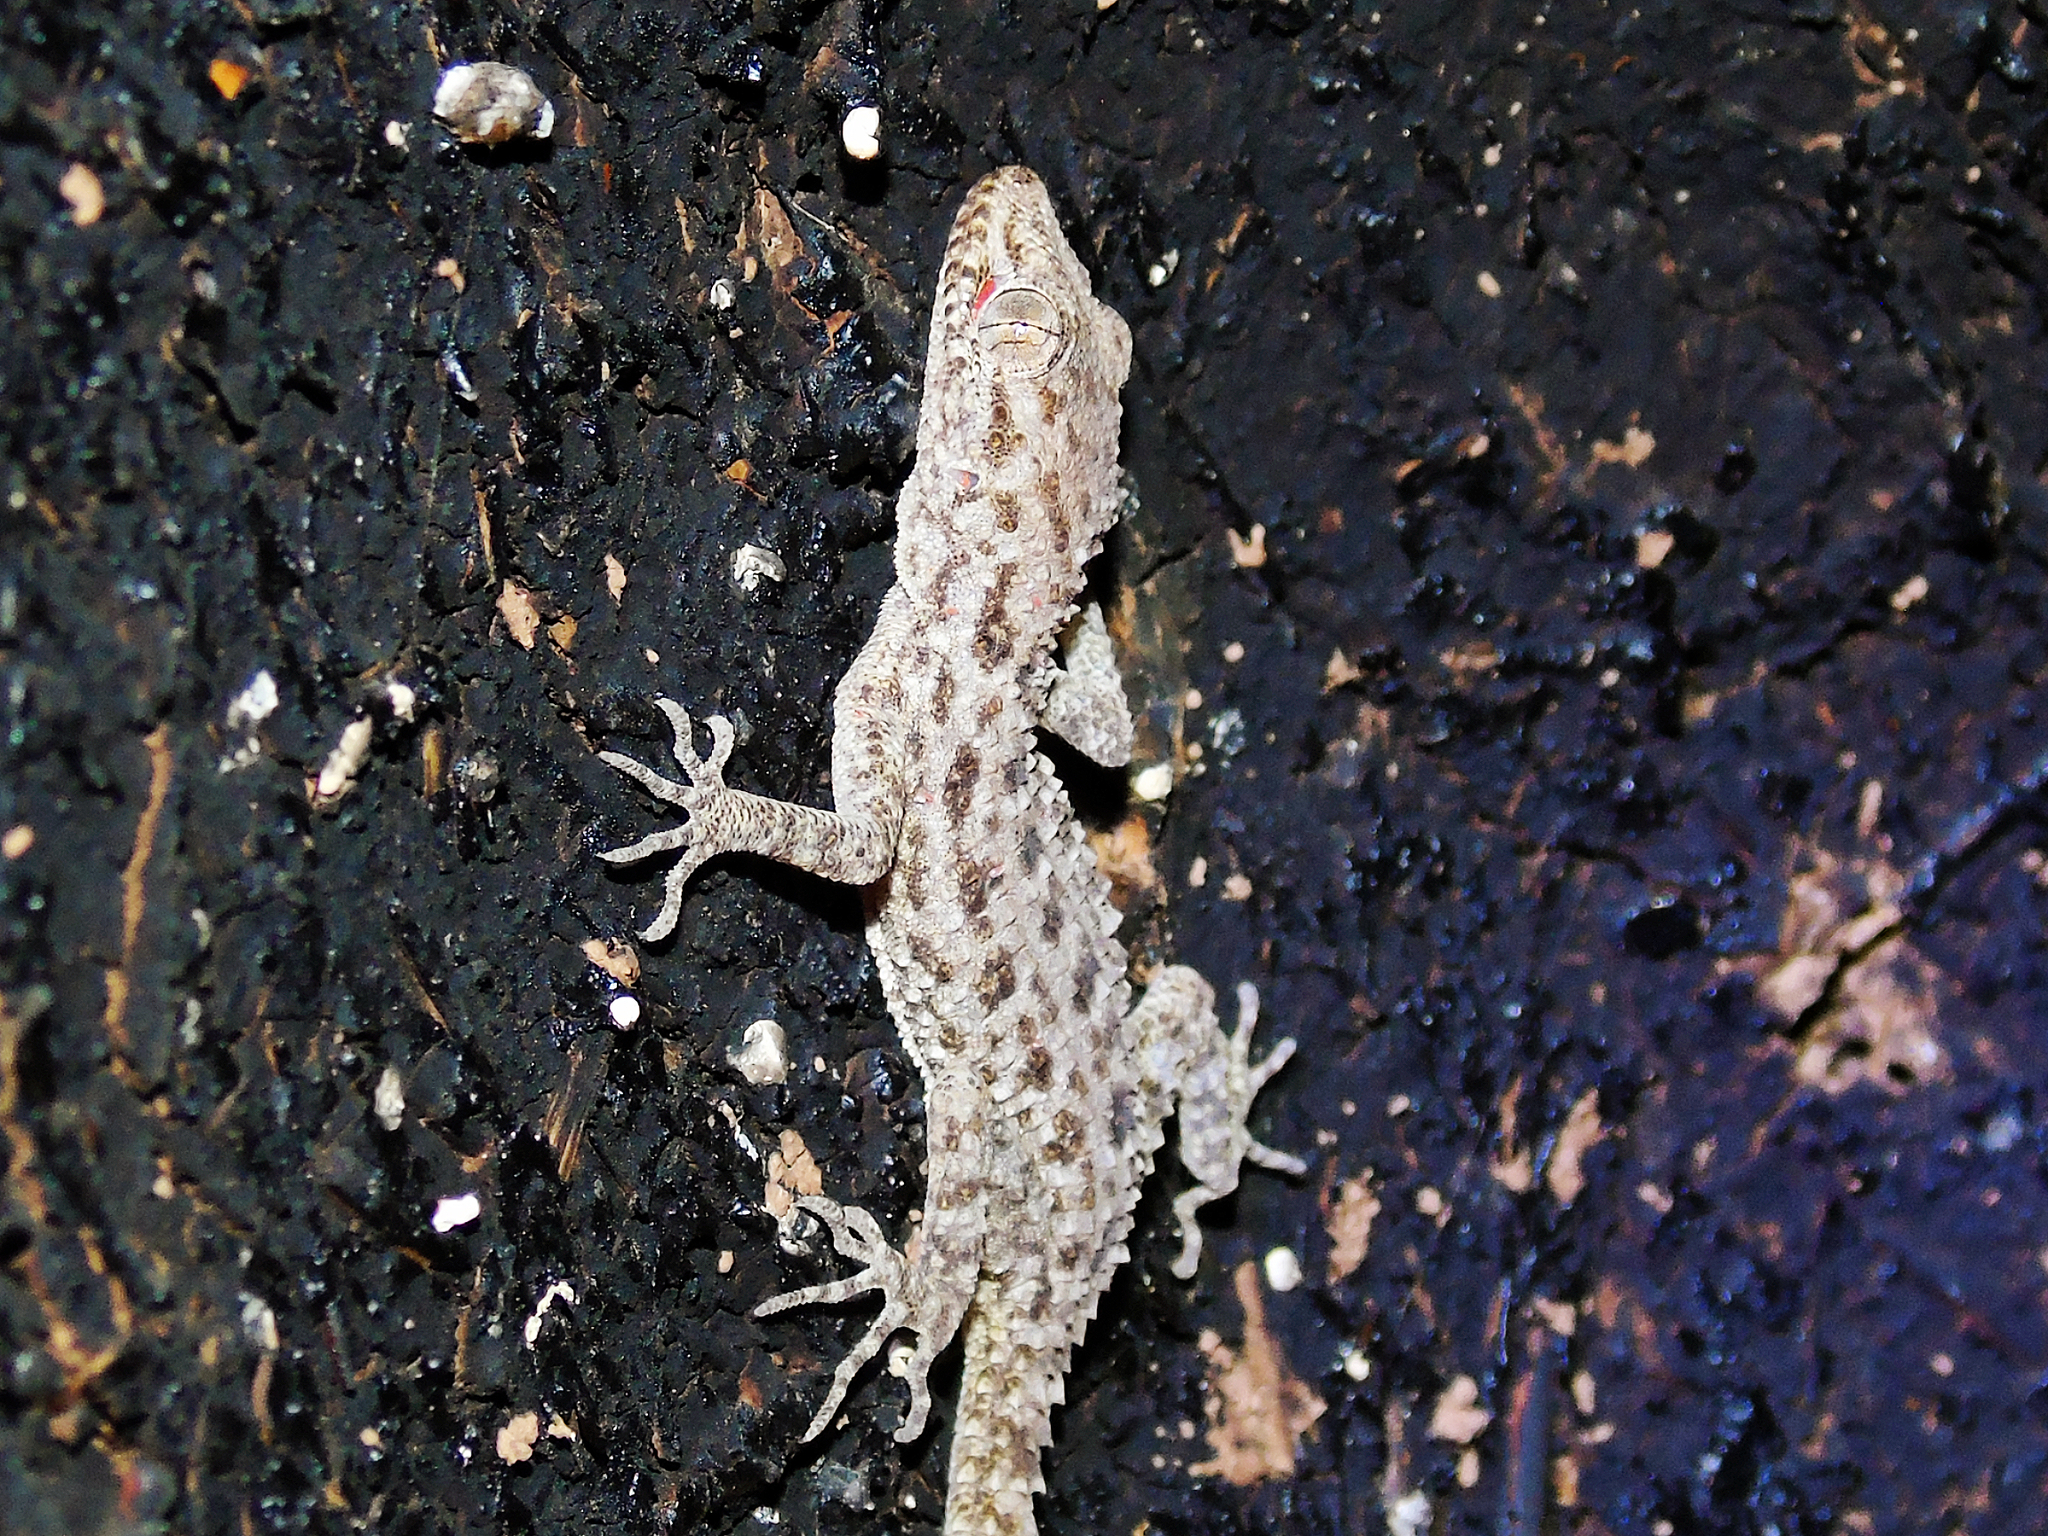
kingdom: Animalia
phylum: Chordata
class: Squamata
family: Gekkonidae
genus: Cyrtopodion
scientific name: Cyrtopodion scabrum
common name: Rough-tailed gecko
